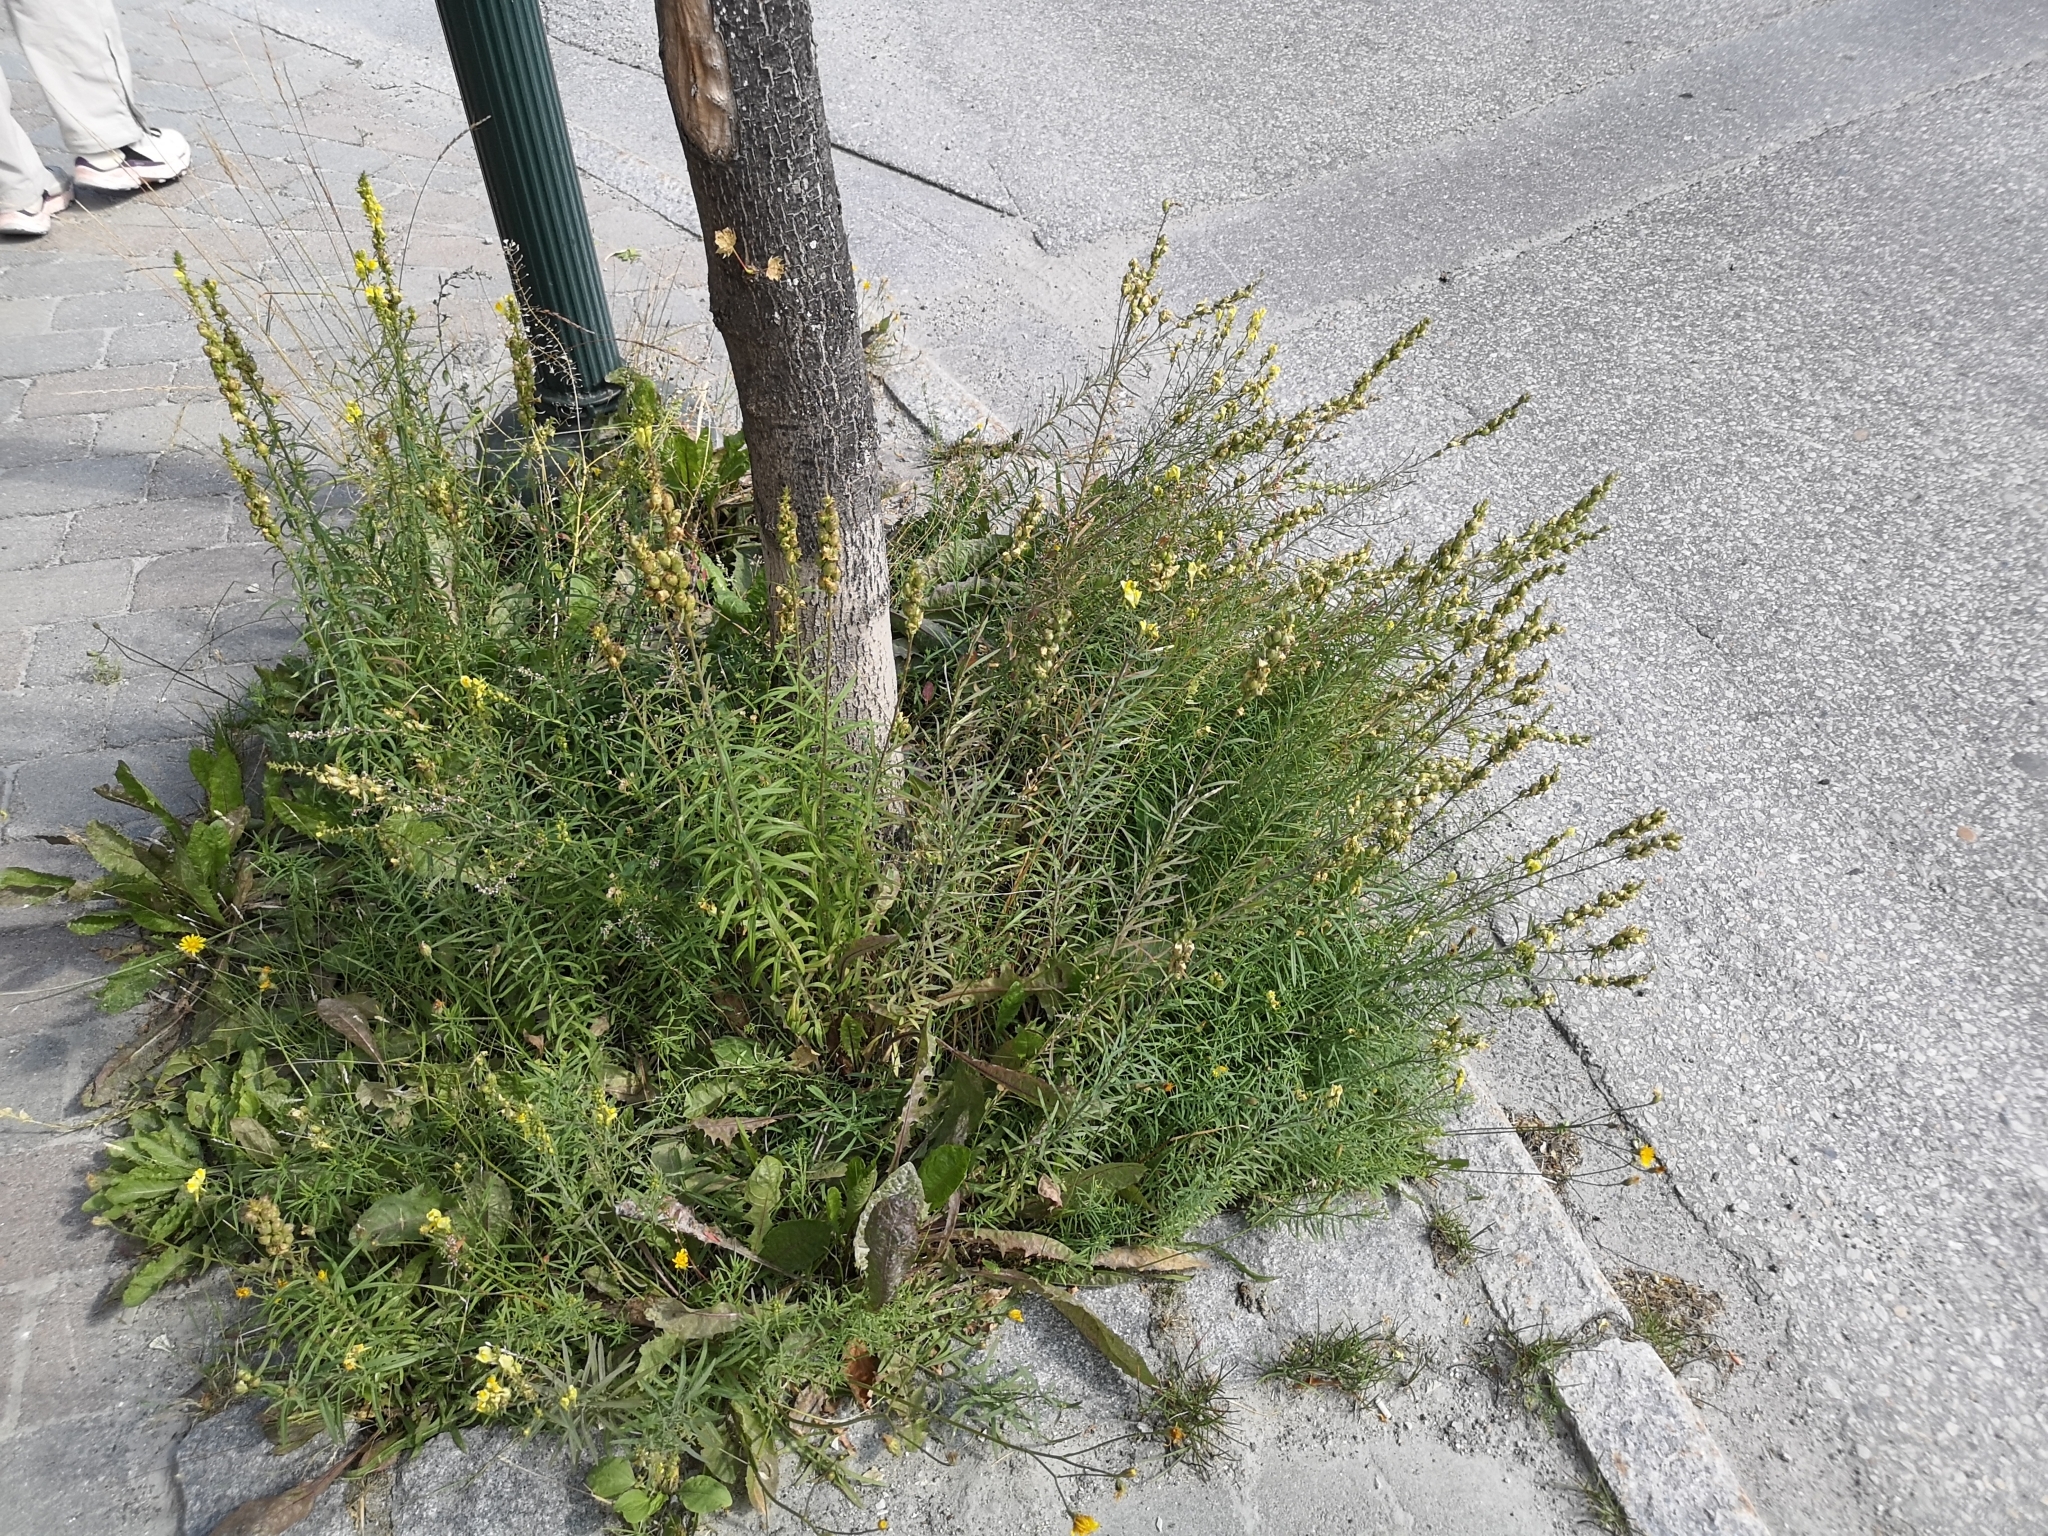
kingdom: Plantae
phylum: Tracheophyta
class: Magnoliopsida
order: Lamiales
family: Plantaginaceae
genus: Linaria
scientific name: Linaria vulgaris
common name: Butter and eggs
